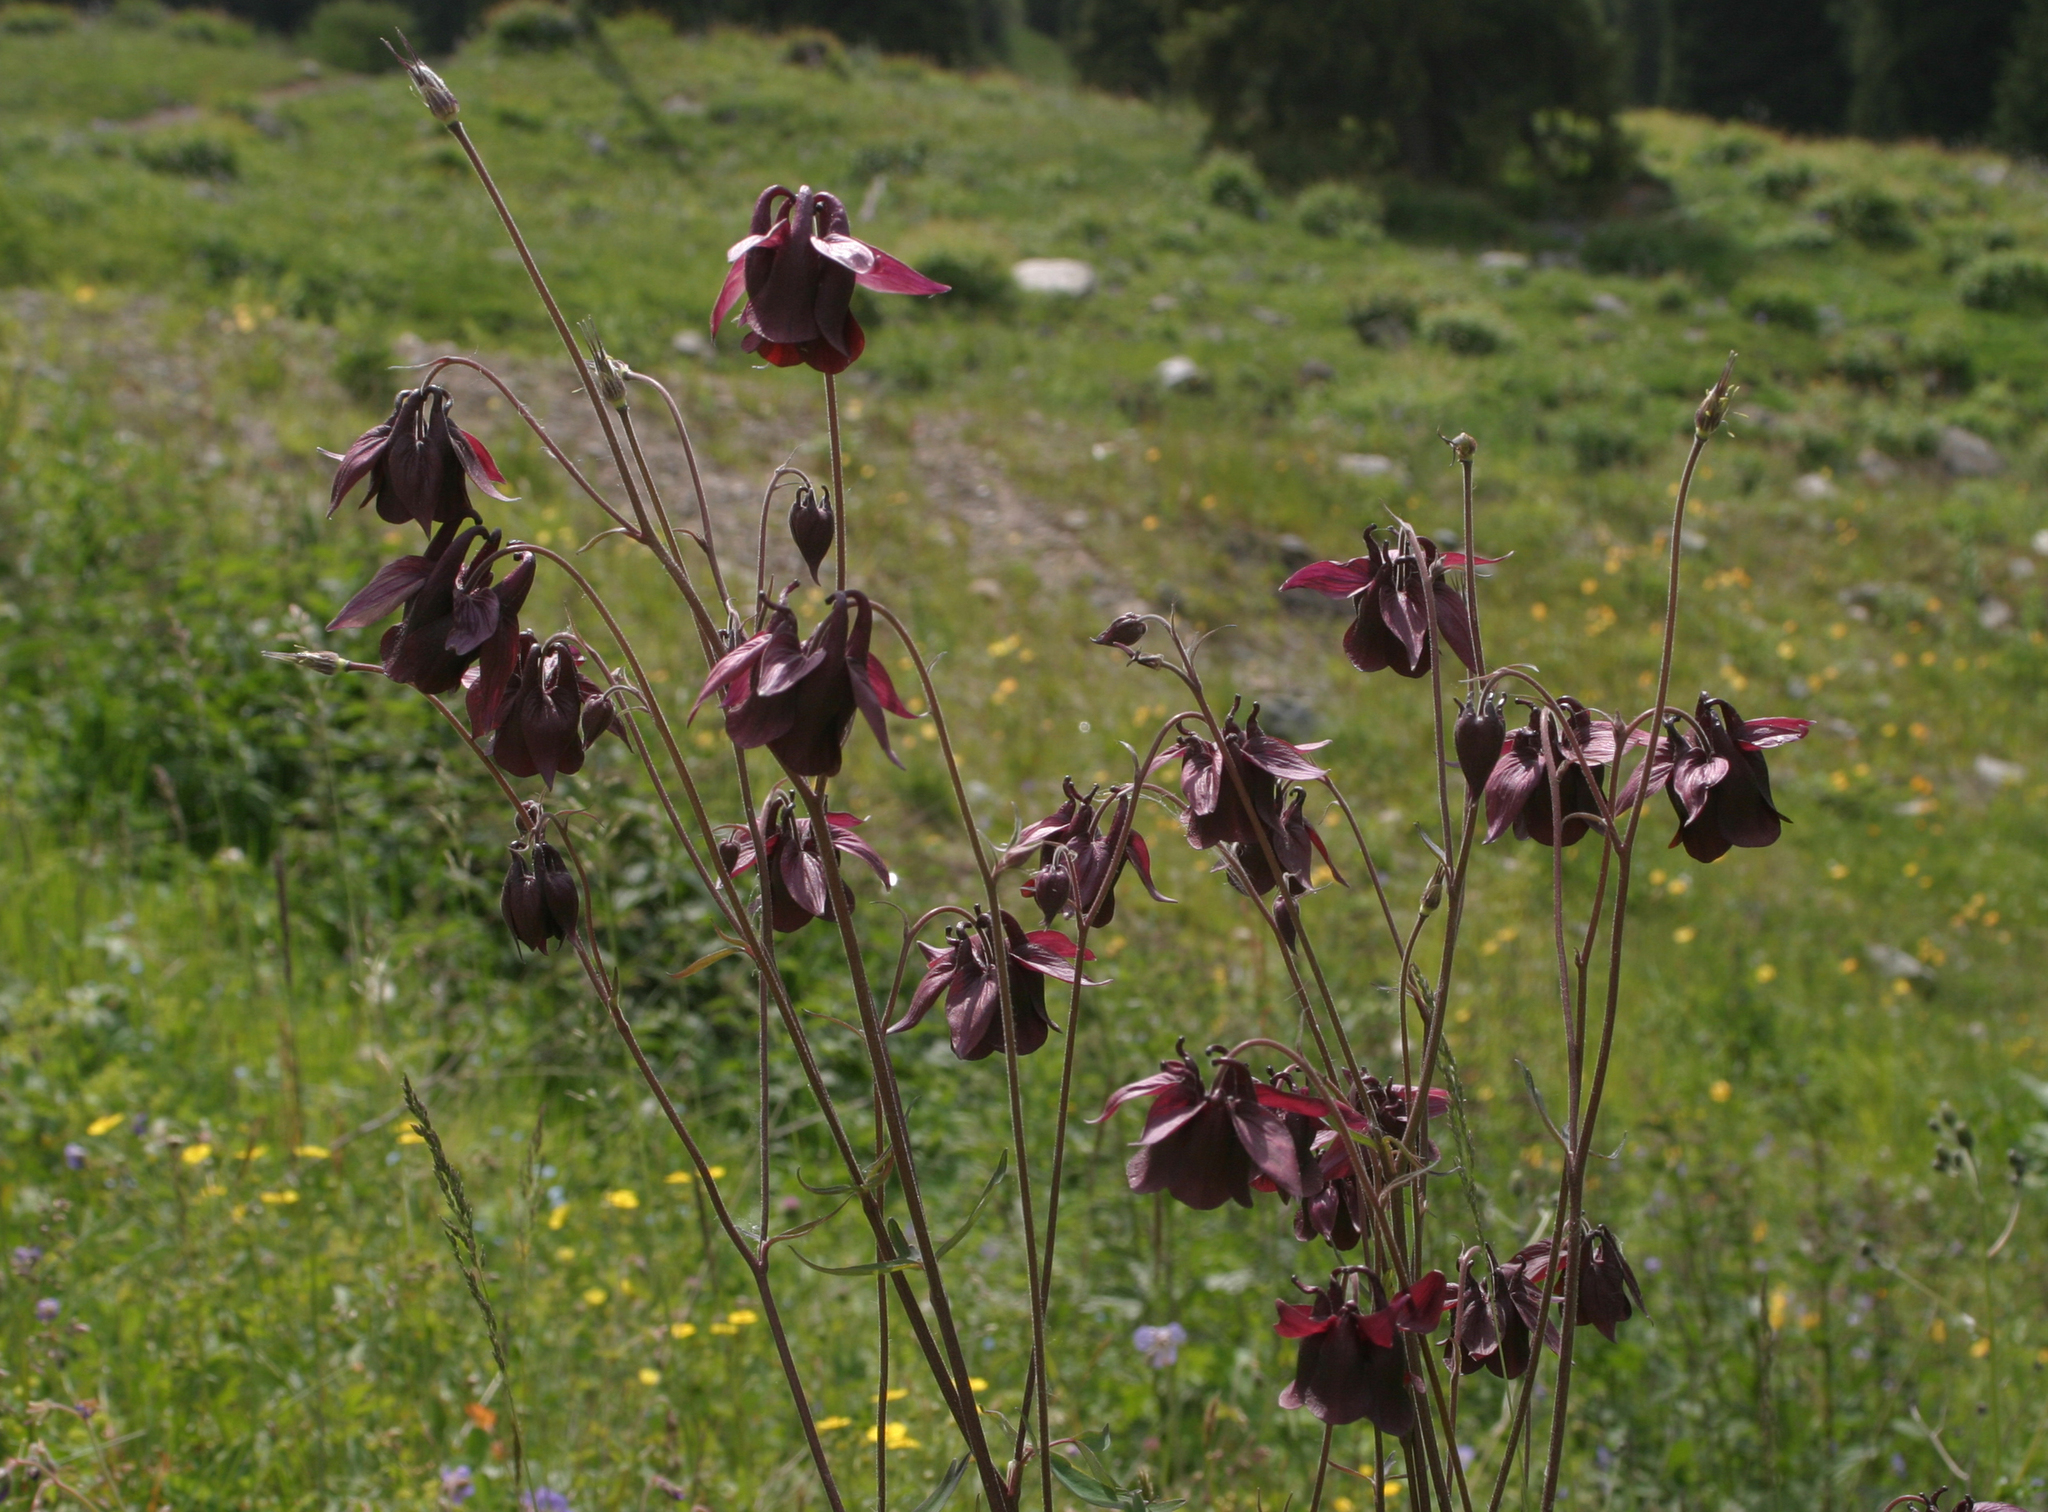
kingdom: Plantae
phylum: Tracheophyta
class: Magnoliopsida
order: Ranunculales
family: Ranunculaceae
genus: Aquilegia
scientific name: Aquilegia atrovinosa
